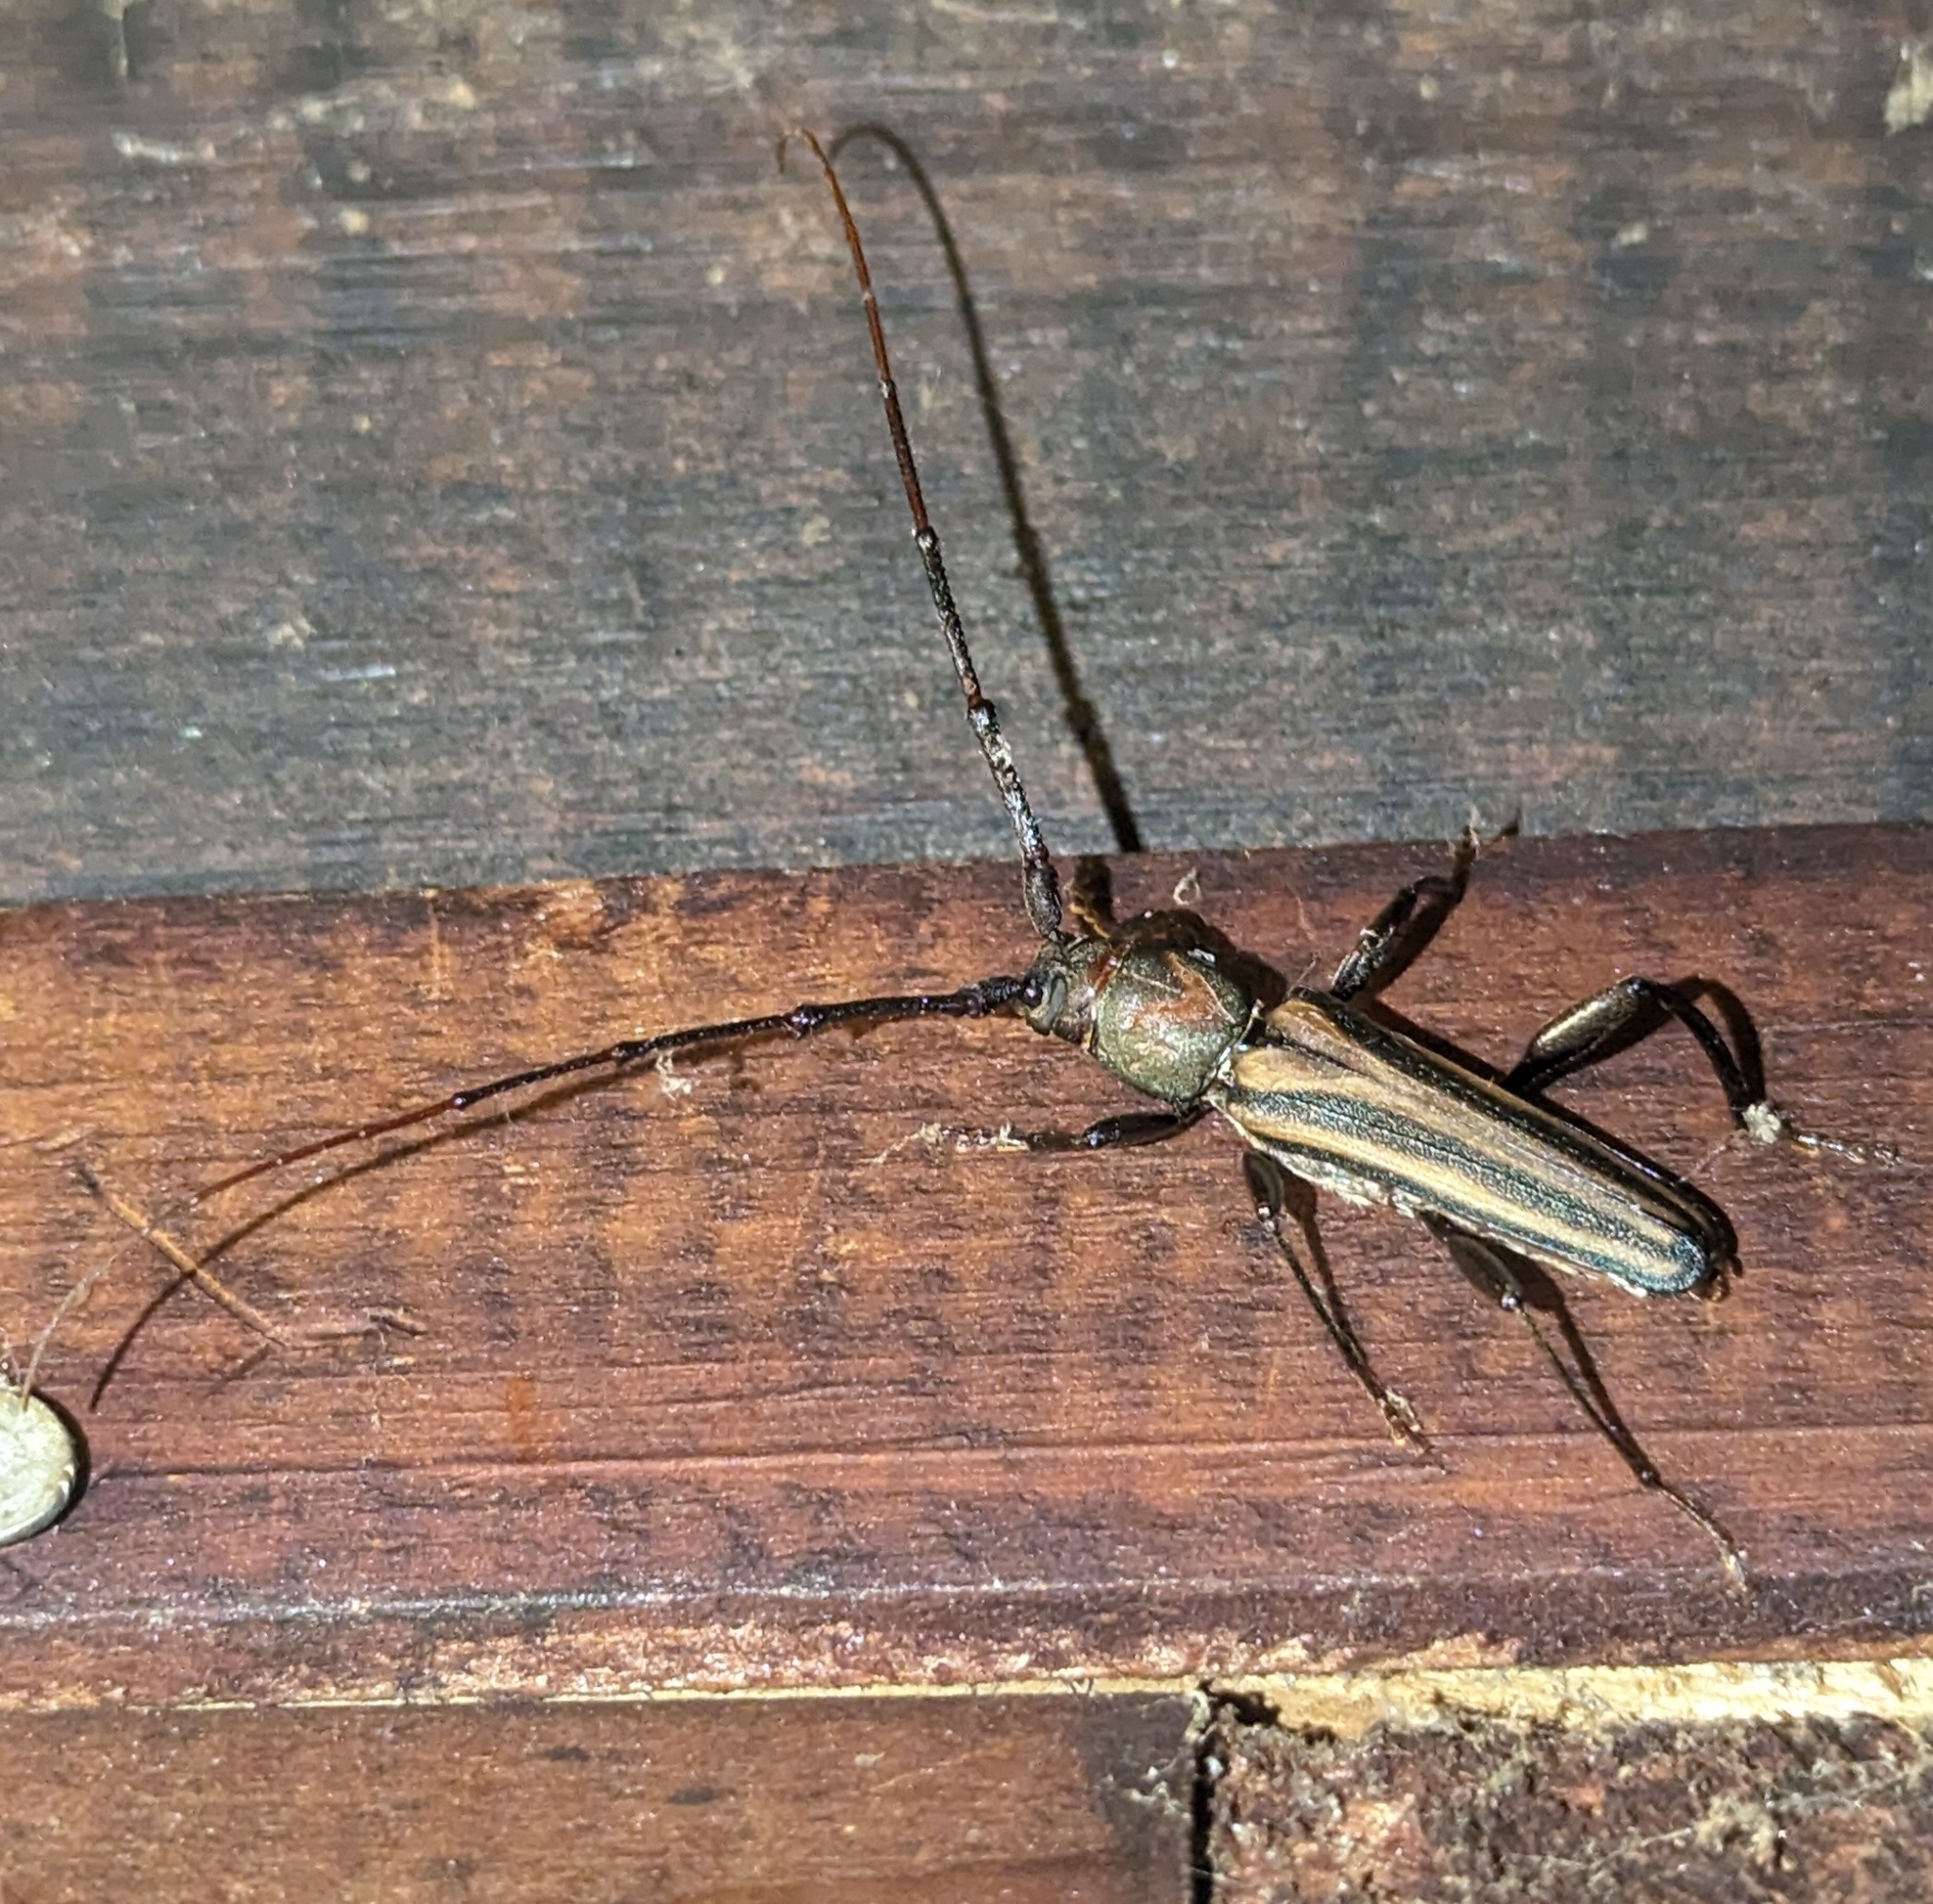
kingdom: Animalia
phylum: Arthropoda
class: Insecta
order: Coleoptera
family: Cerambycidae
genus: Xystrocera
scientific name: Xystrocera dispar
